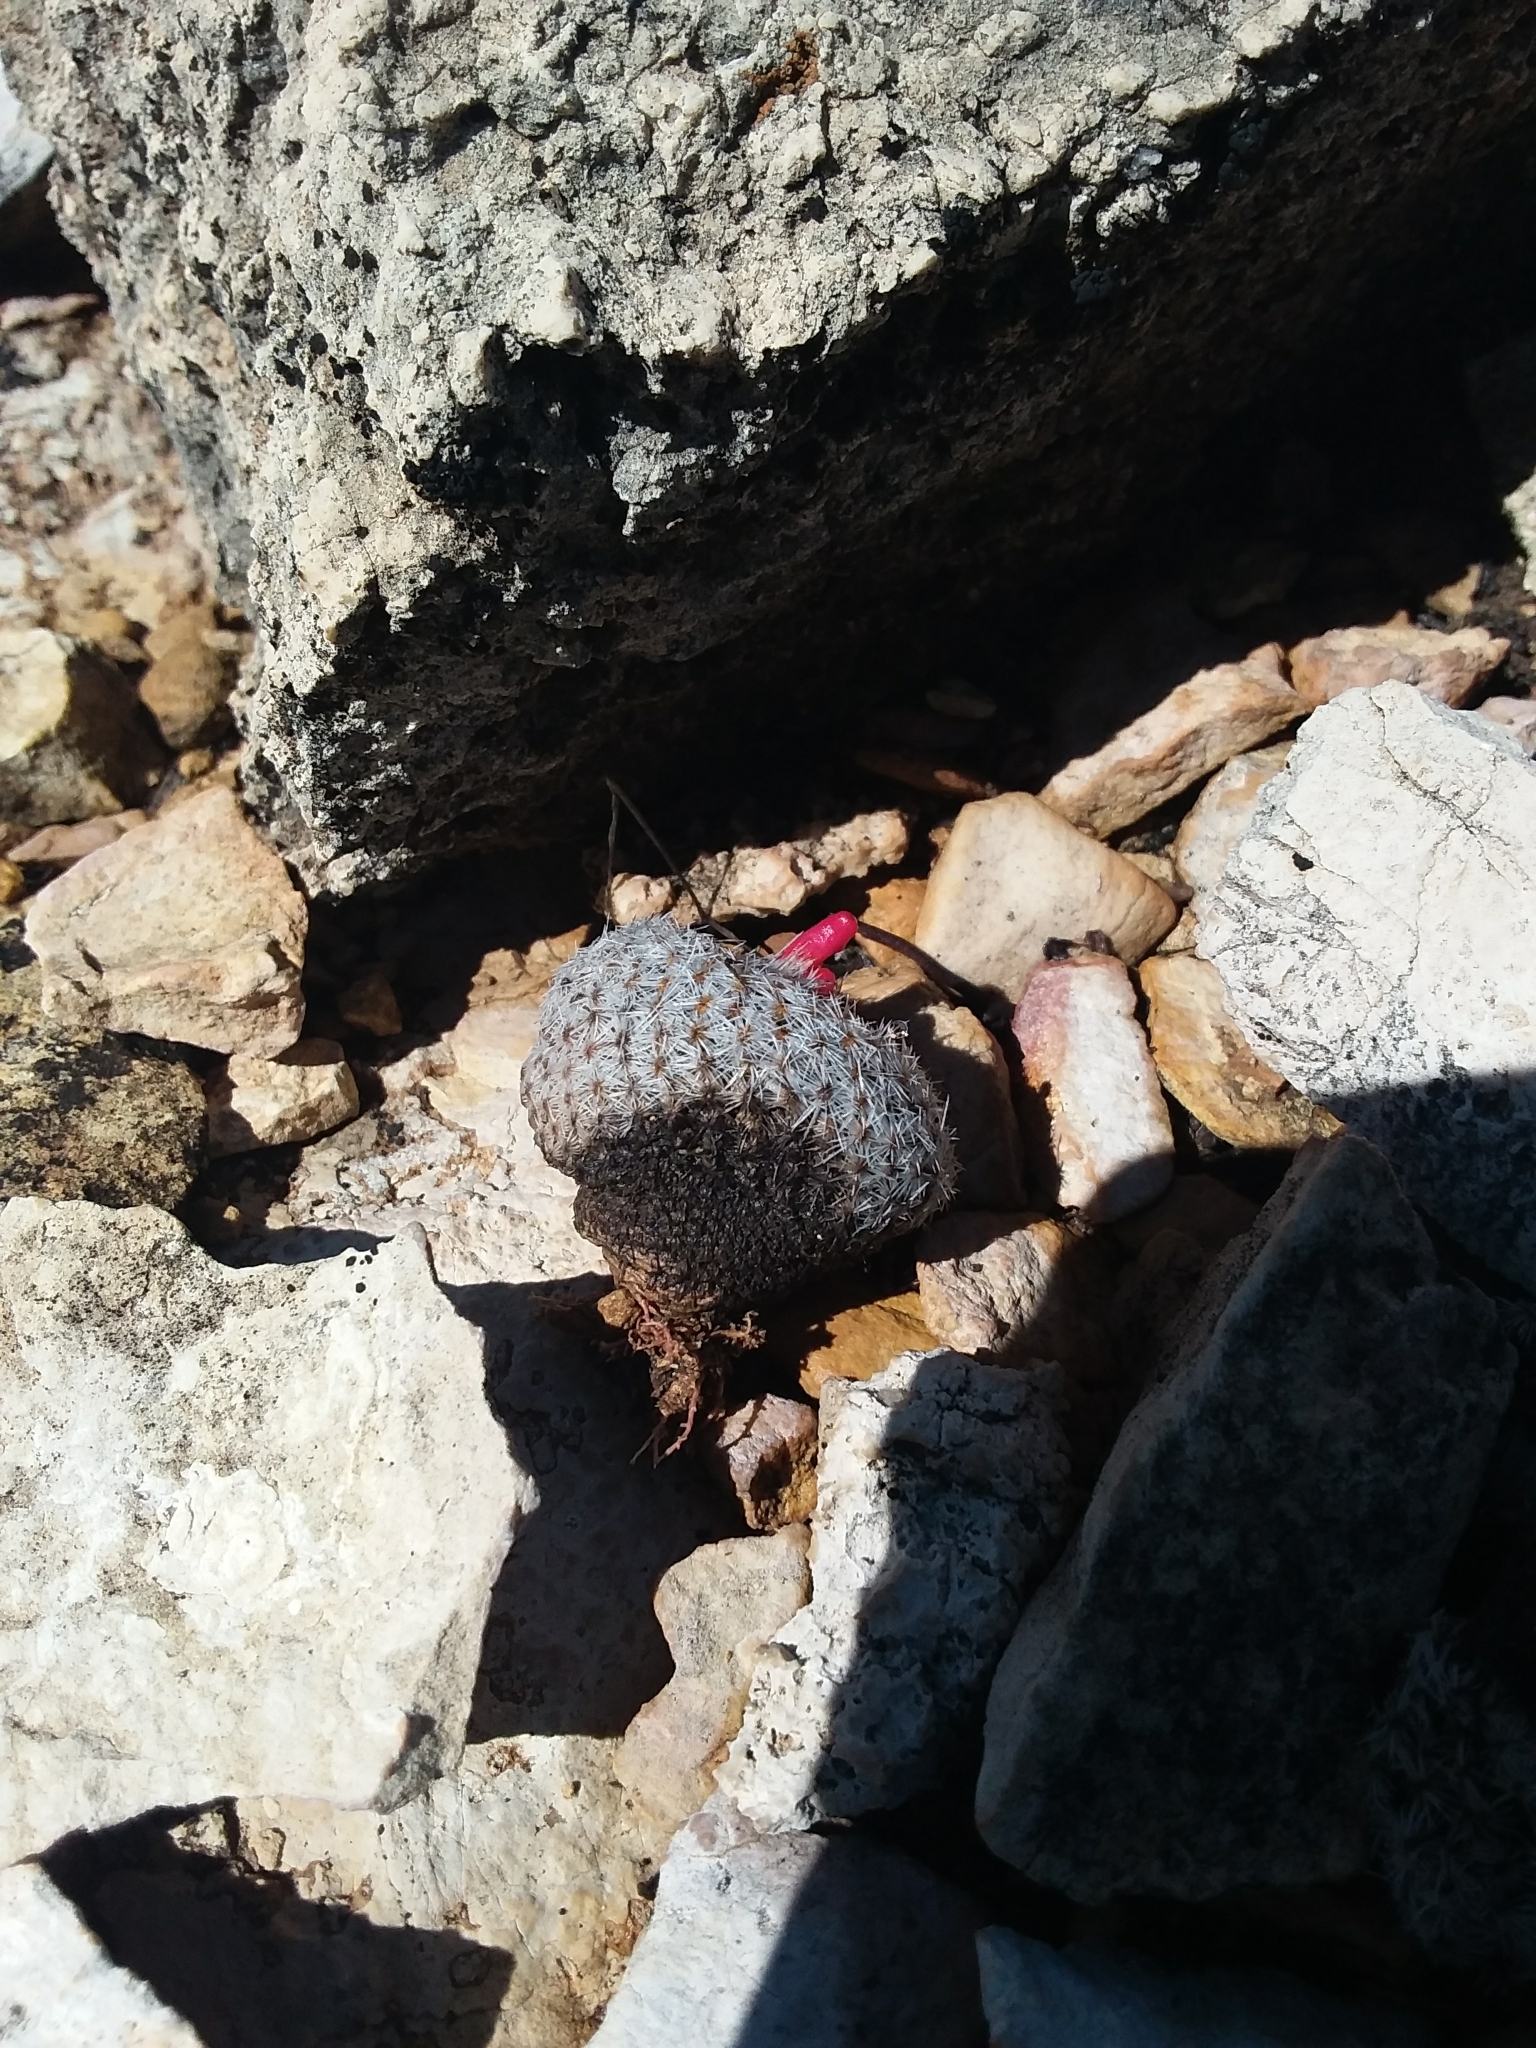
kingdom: Plantae
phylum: Tracheophyta
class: Magnoliopsida
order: Caryophyllales
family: Cactaceae
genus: Epithelantha
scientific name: Epithelantha micromeris
